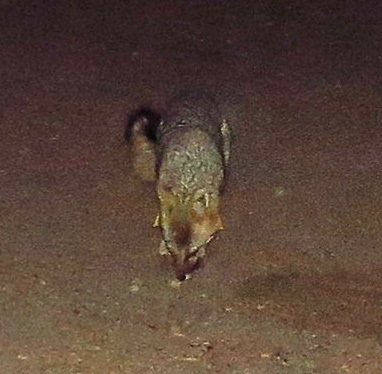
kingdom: Animalia
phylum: Chordata
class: Mammalia
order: Carnivora
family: Canidae
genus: Urocyon
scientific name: Urocyon cinereoargenteus
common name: Gray fox
